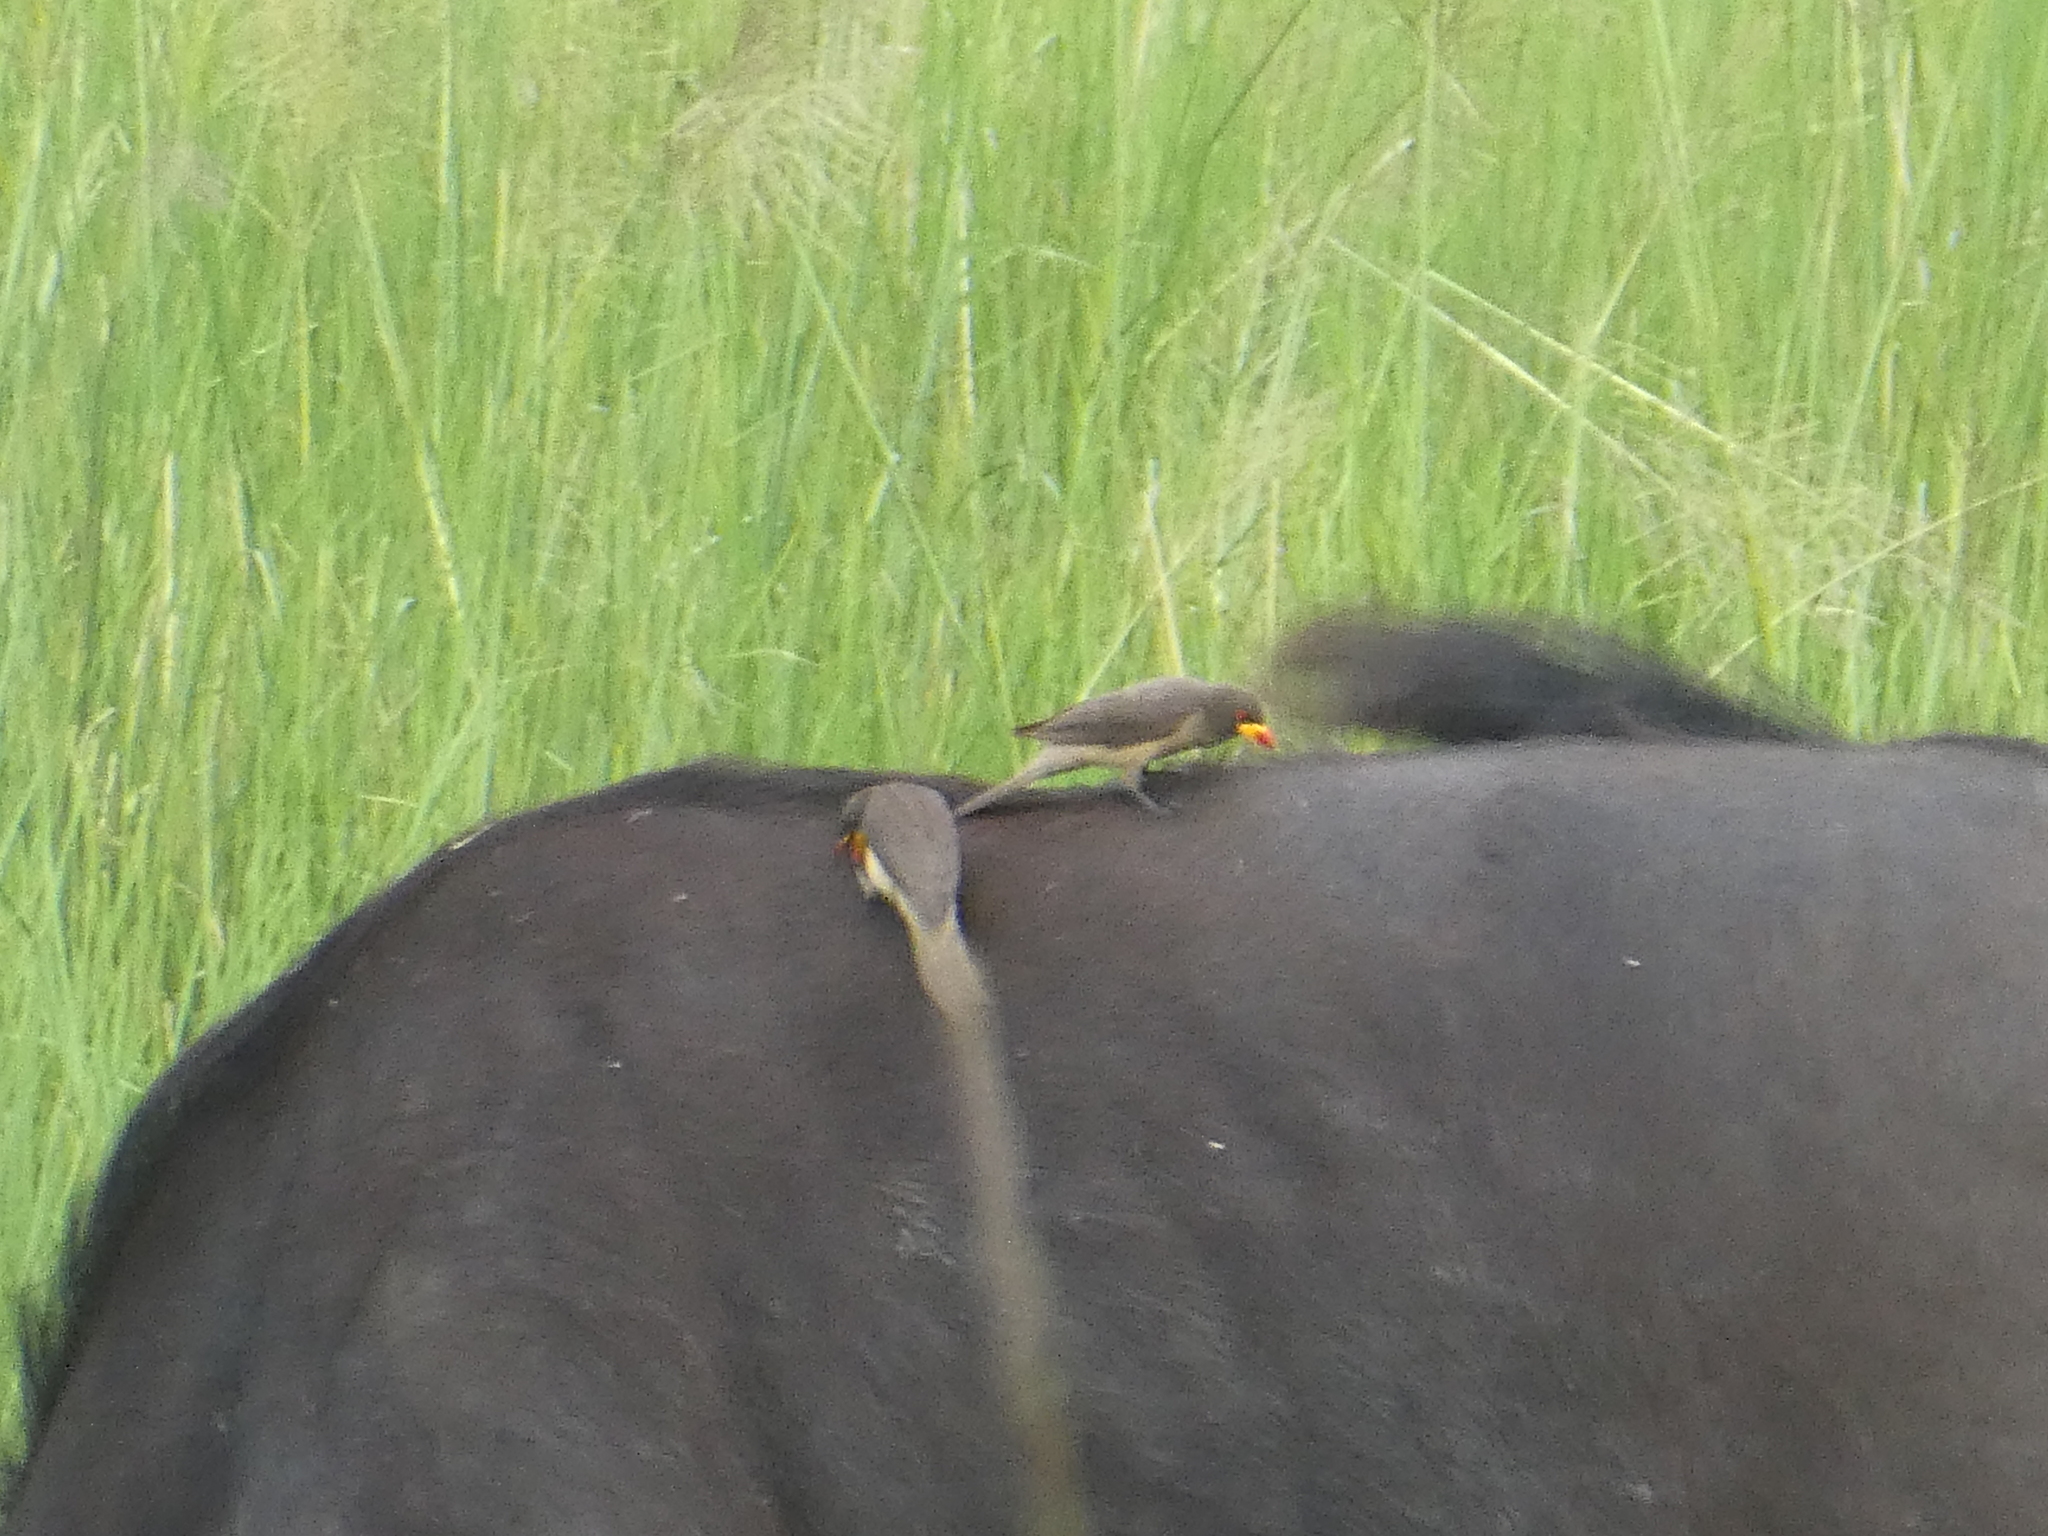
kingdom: Animalia
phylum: Chordata
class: Aves
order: Passeriformes
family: Buphagidae
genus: Buphagus
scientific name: Buphagus africanus
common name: Yellow-billed oxpecker
